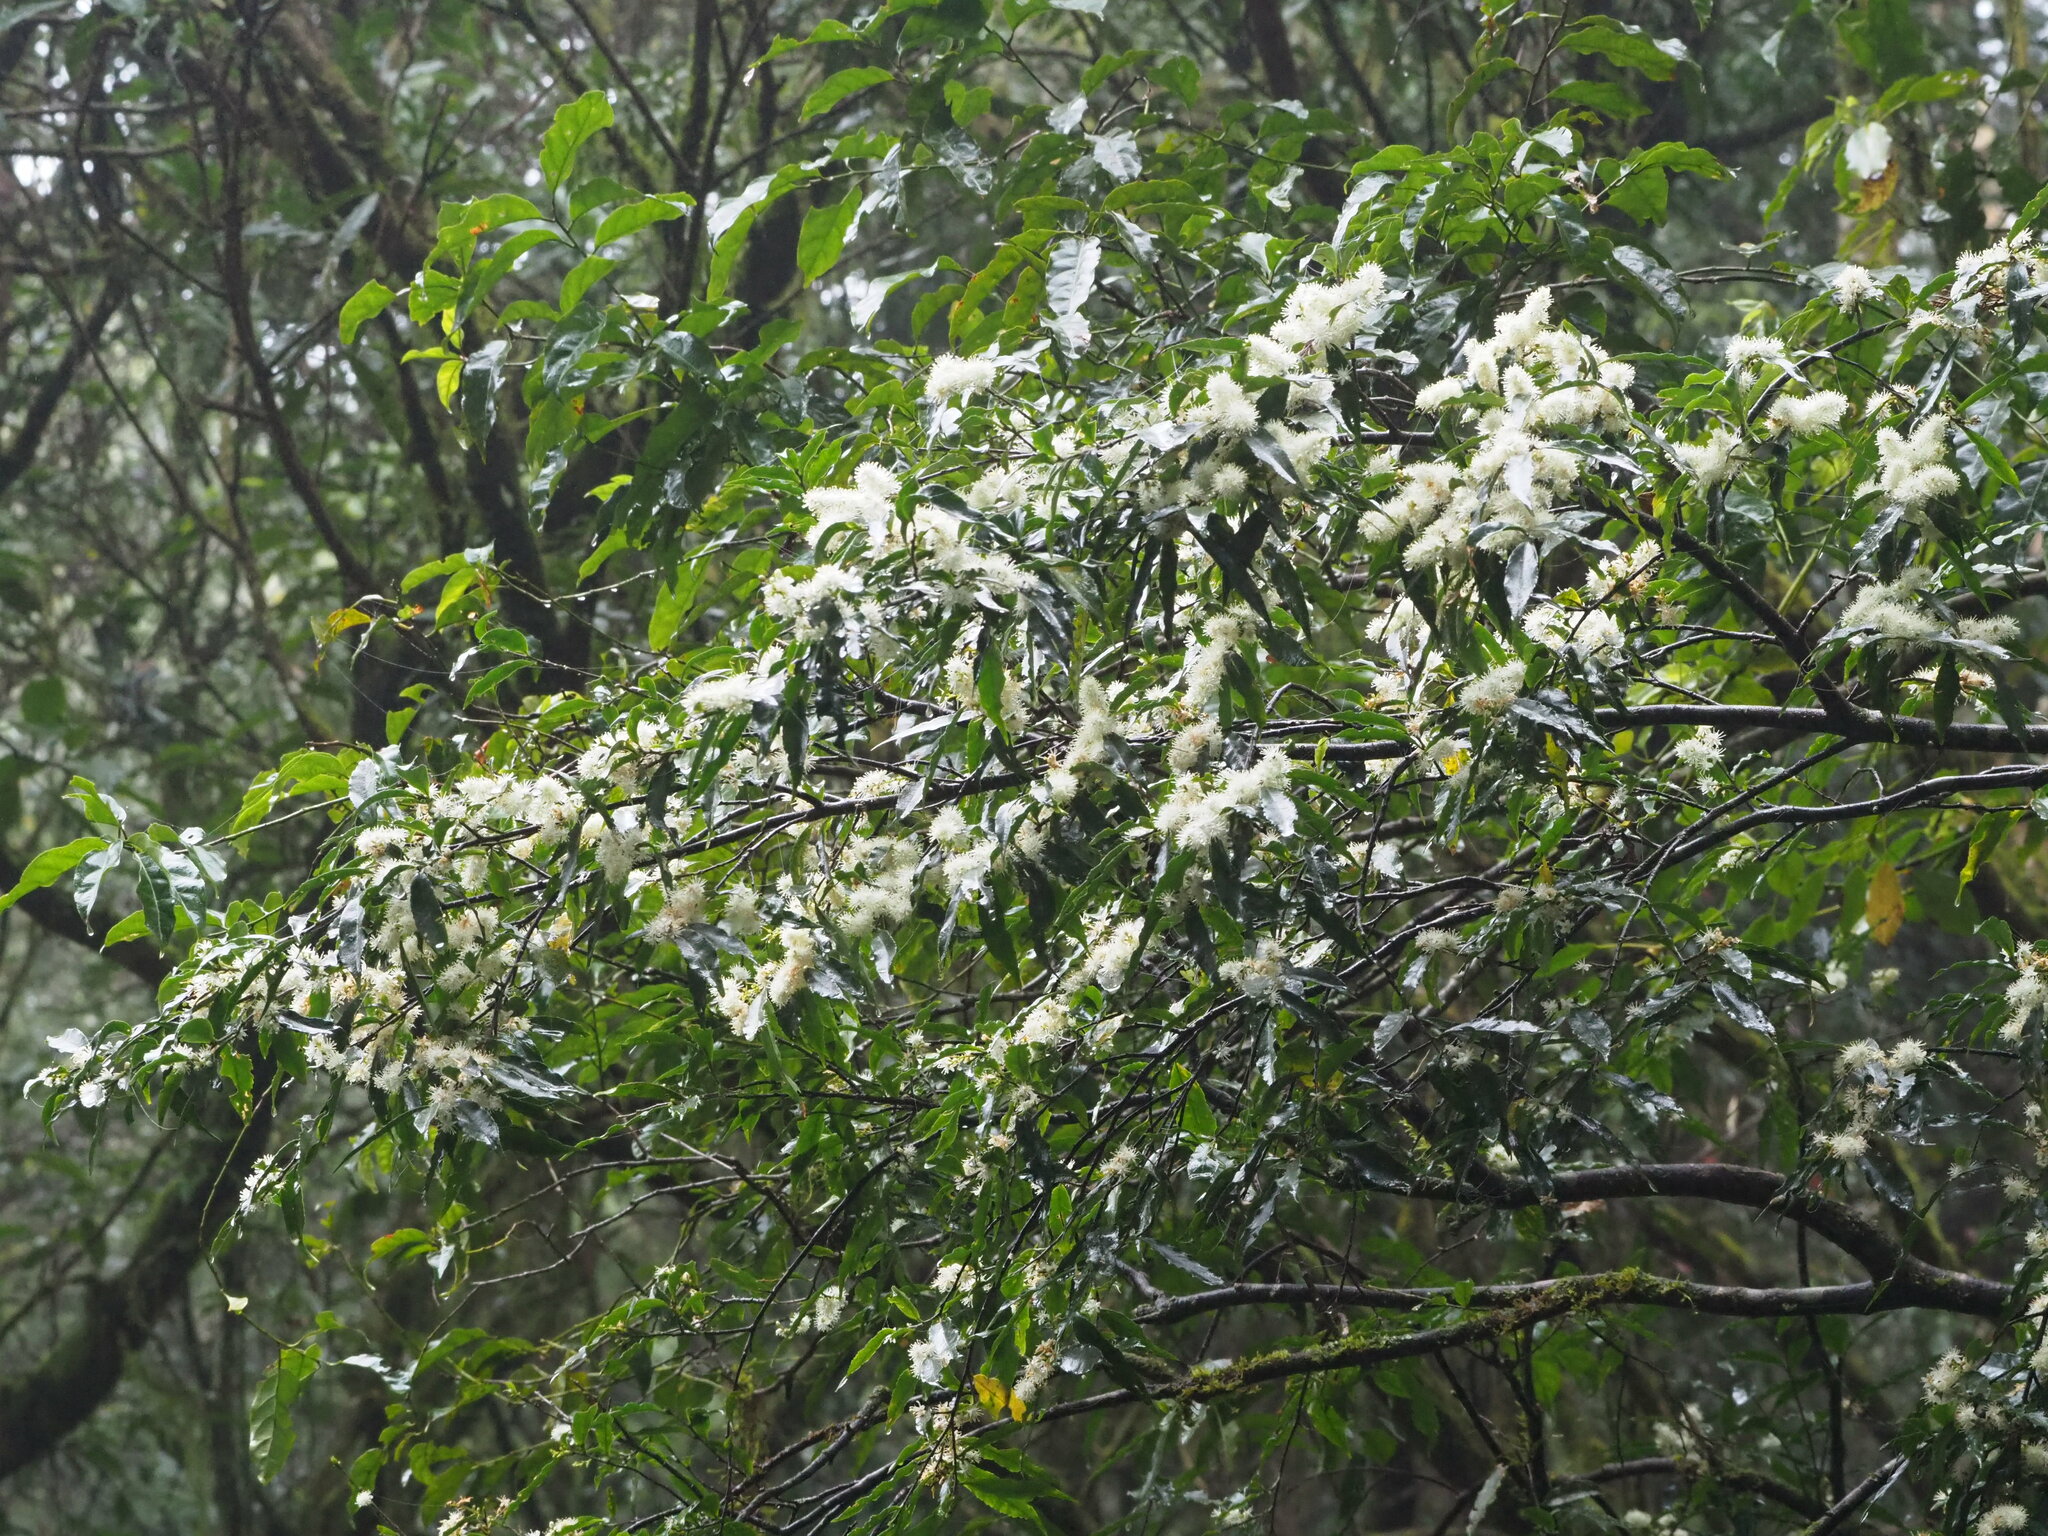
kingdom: Plantae
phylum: Tracheophyta
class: Magnoliopsida
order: Ericales
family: Symplocaceae
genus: Symplocos
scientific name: Symplocos lancifolia
